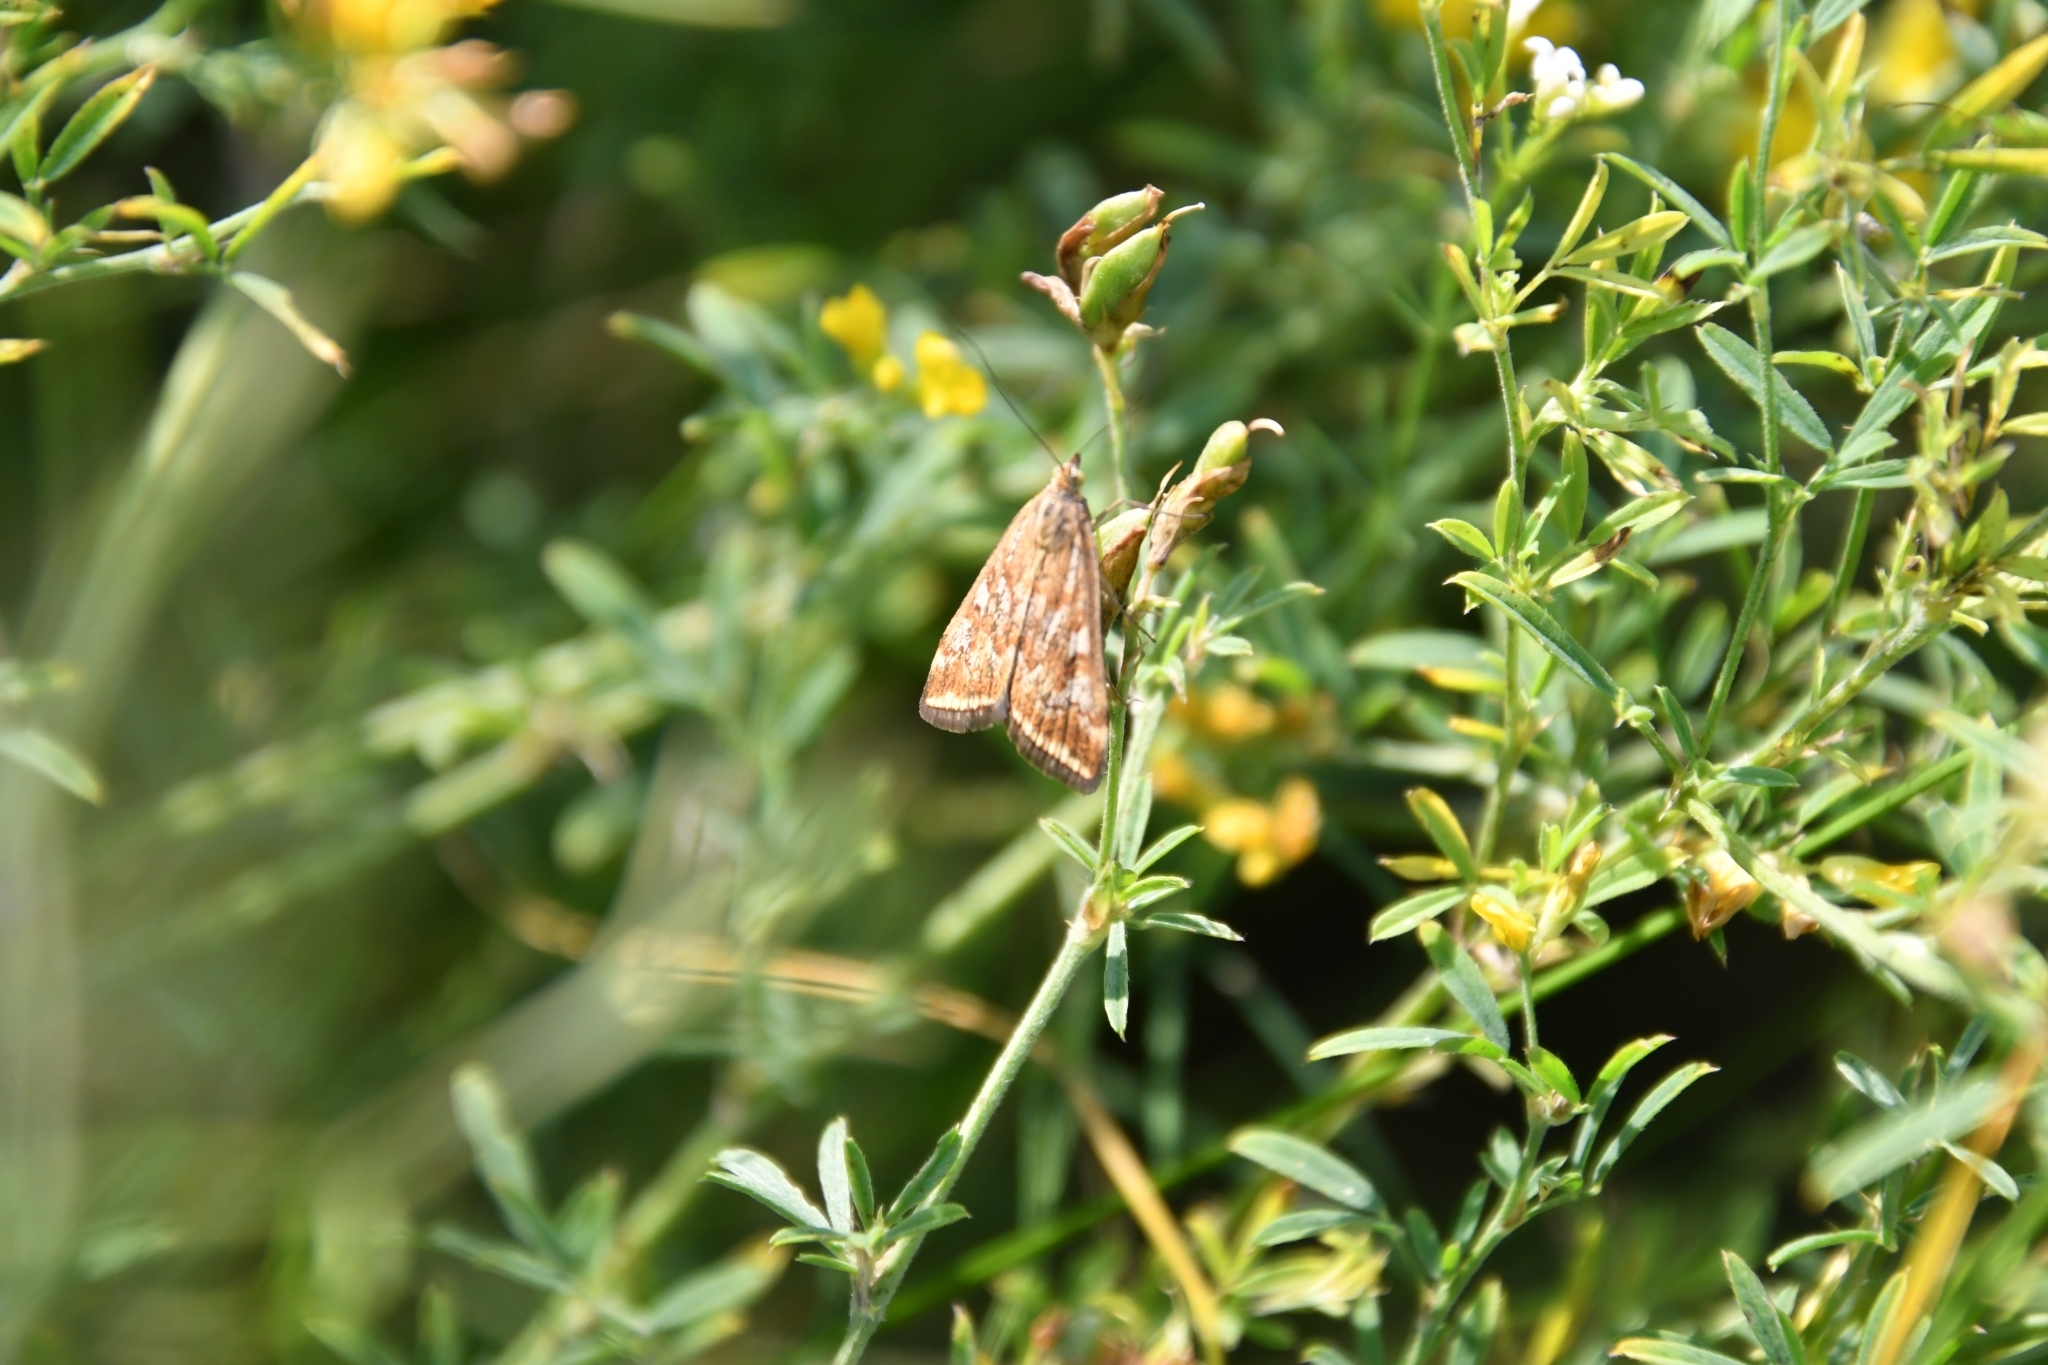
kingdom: Animalia
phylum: Arthropoda
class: Insecta
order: Lepidoptera
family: Crambidae
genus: Loxostege
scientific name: Loxostege sticticalis
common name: Crambid moth
